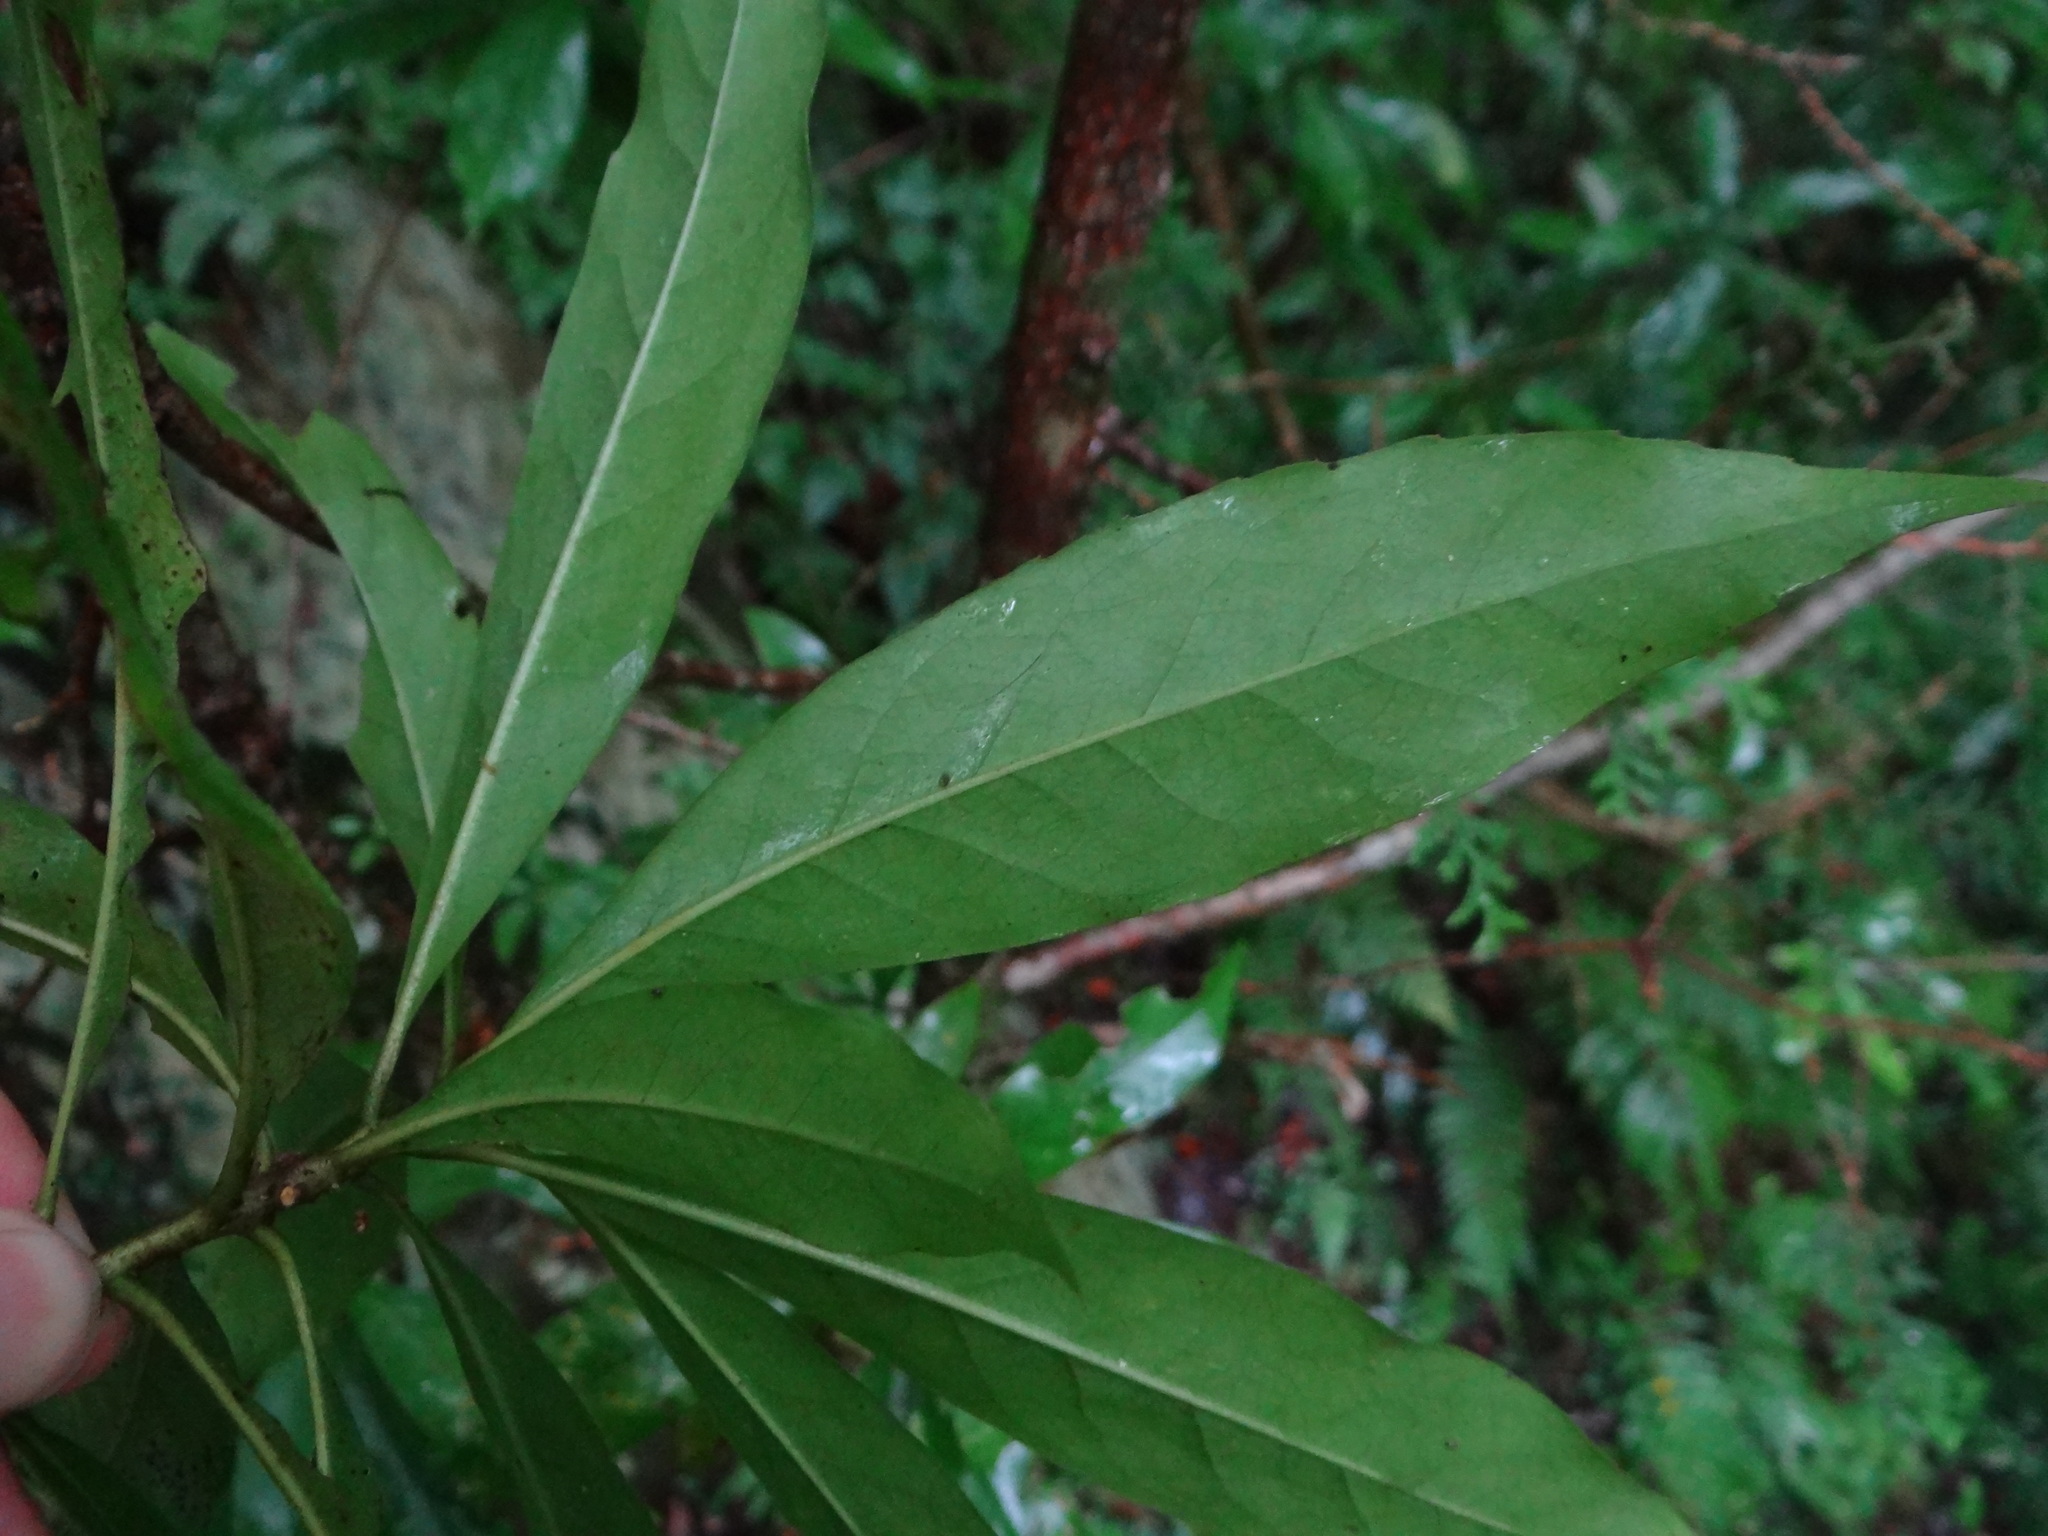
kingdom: Plantae
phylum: Tracheophyta
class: Magnoliopsida
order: Ericales
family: Theaceae
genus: Schima
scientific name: Schima superba
